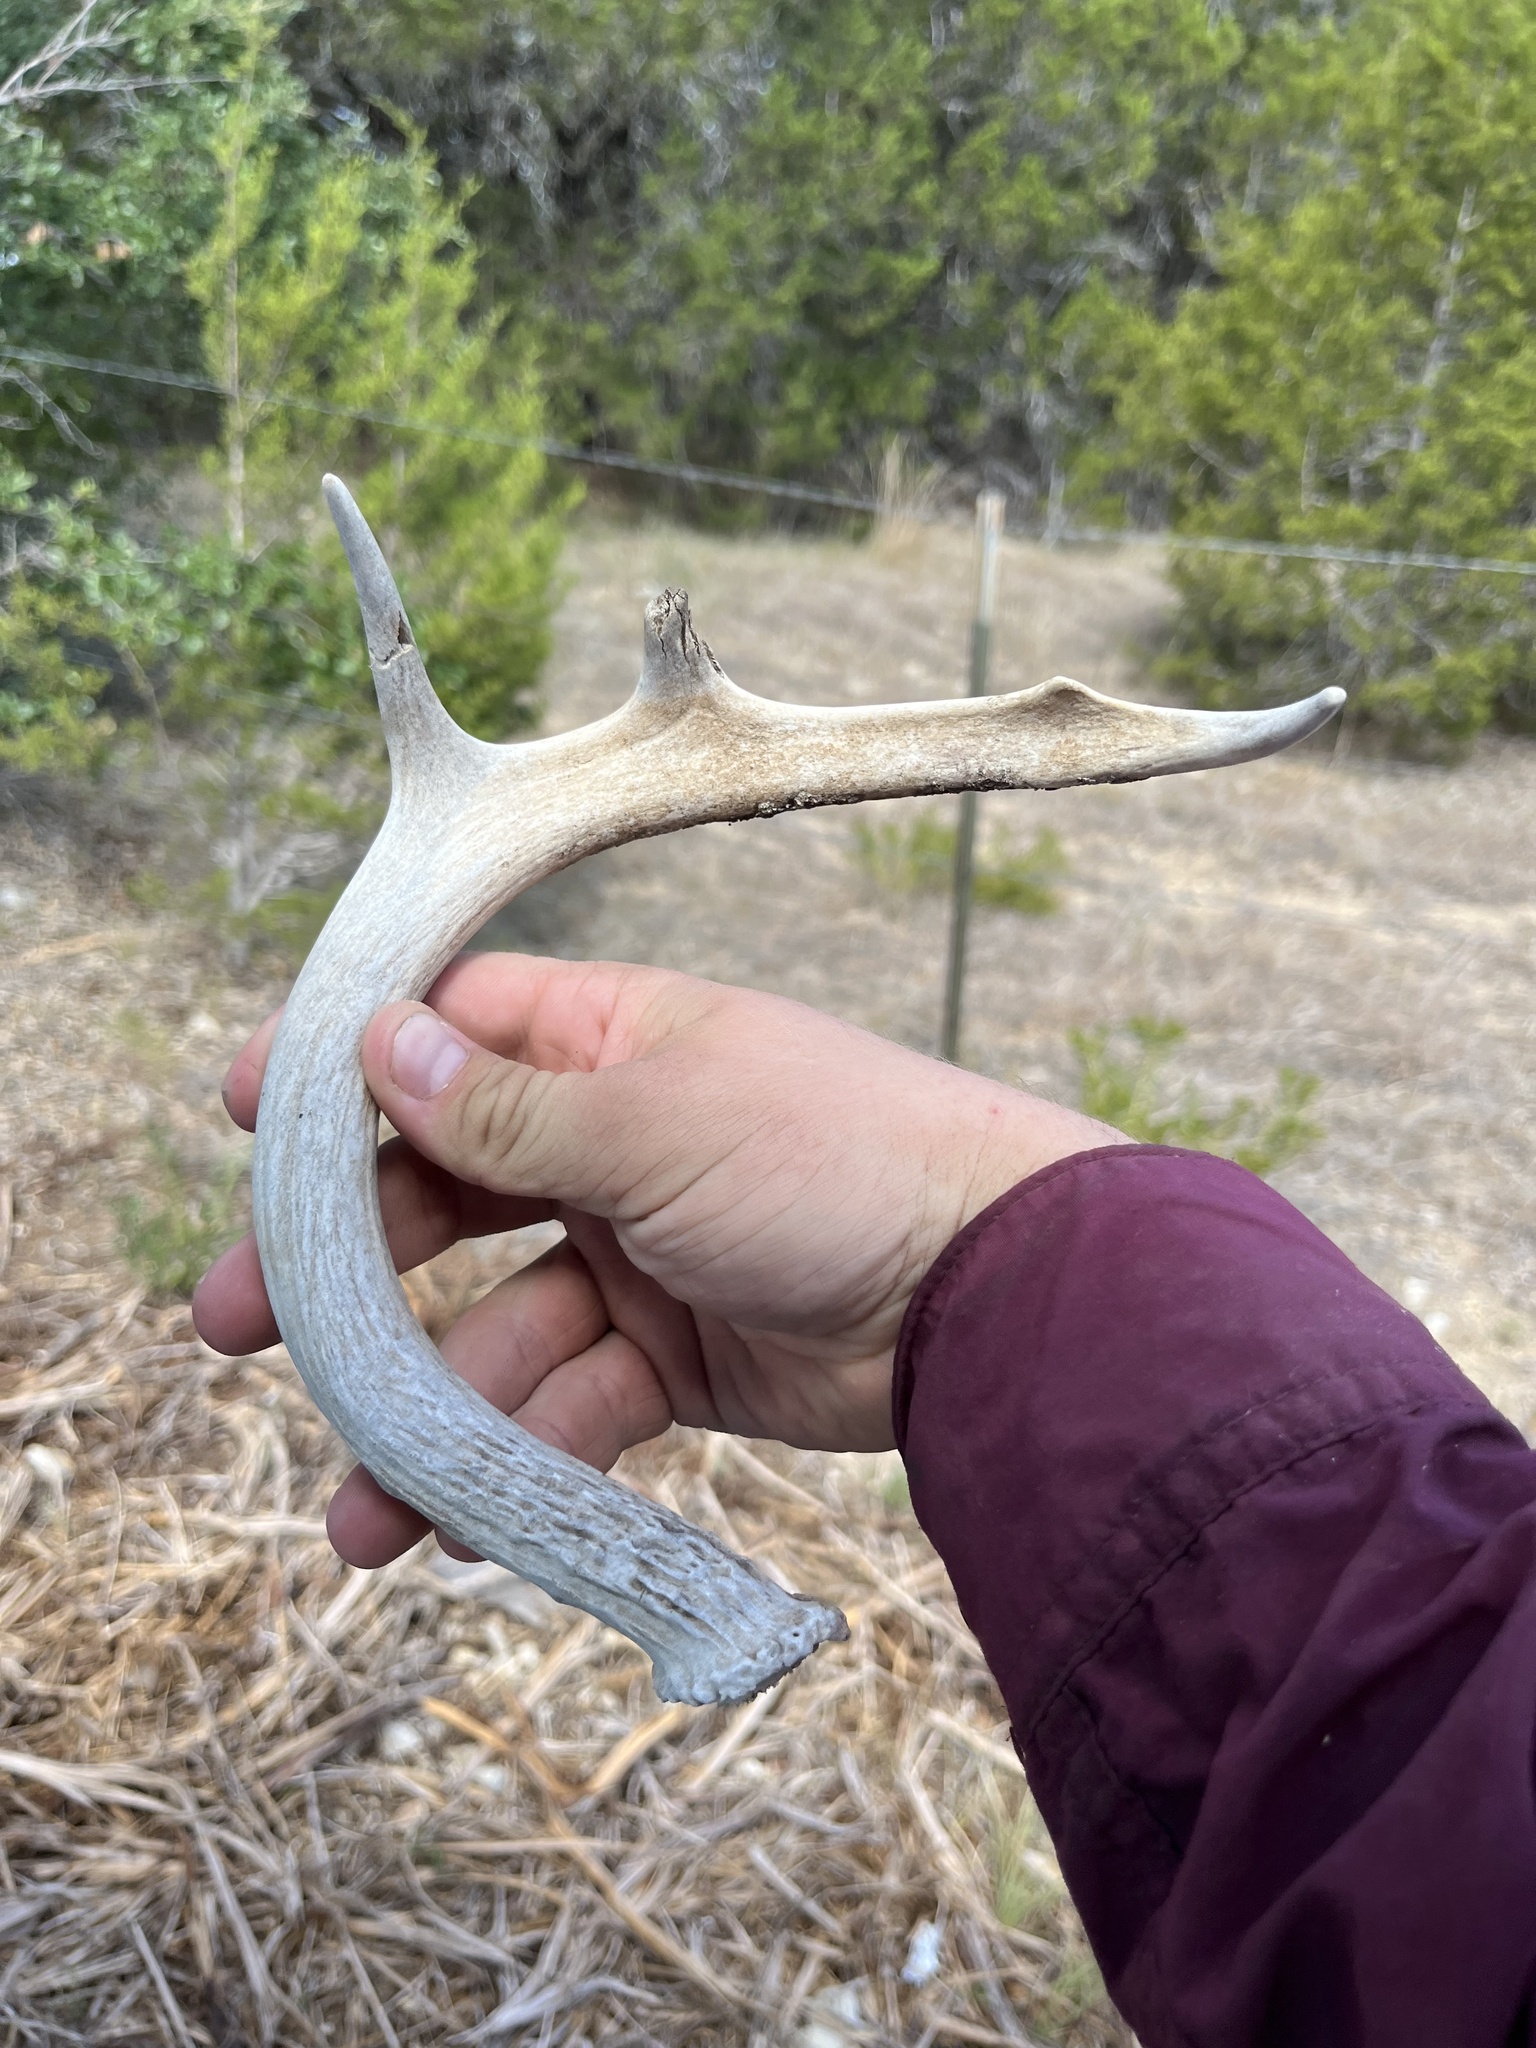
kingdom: Animalia
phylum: Chordata
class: Mammalia
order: Artiodactyla
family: Cervidae
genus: Odocoileus
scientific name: Odocoileus virginianus
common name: White-tailed deer
